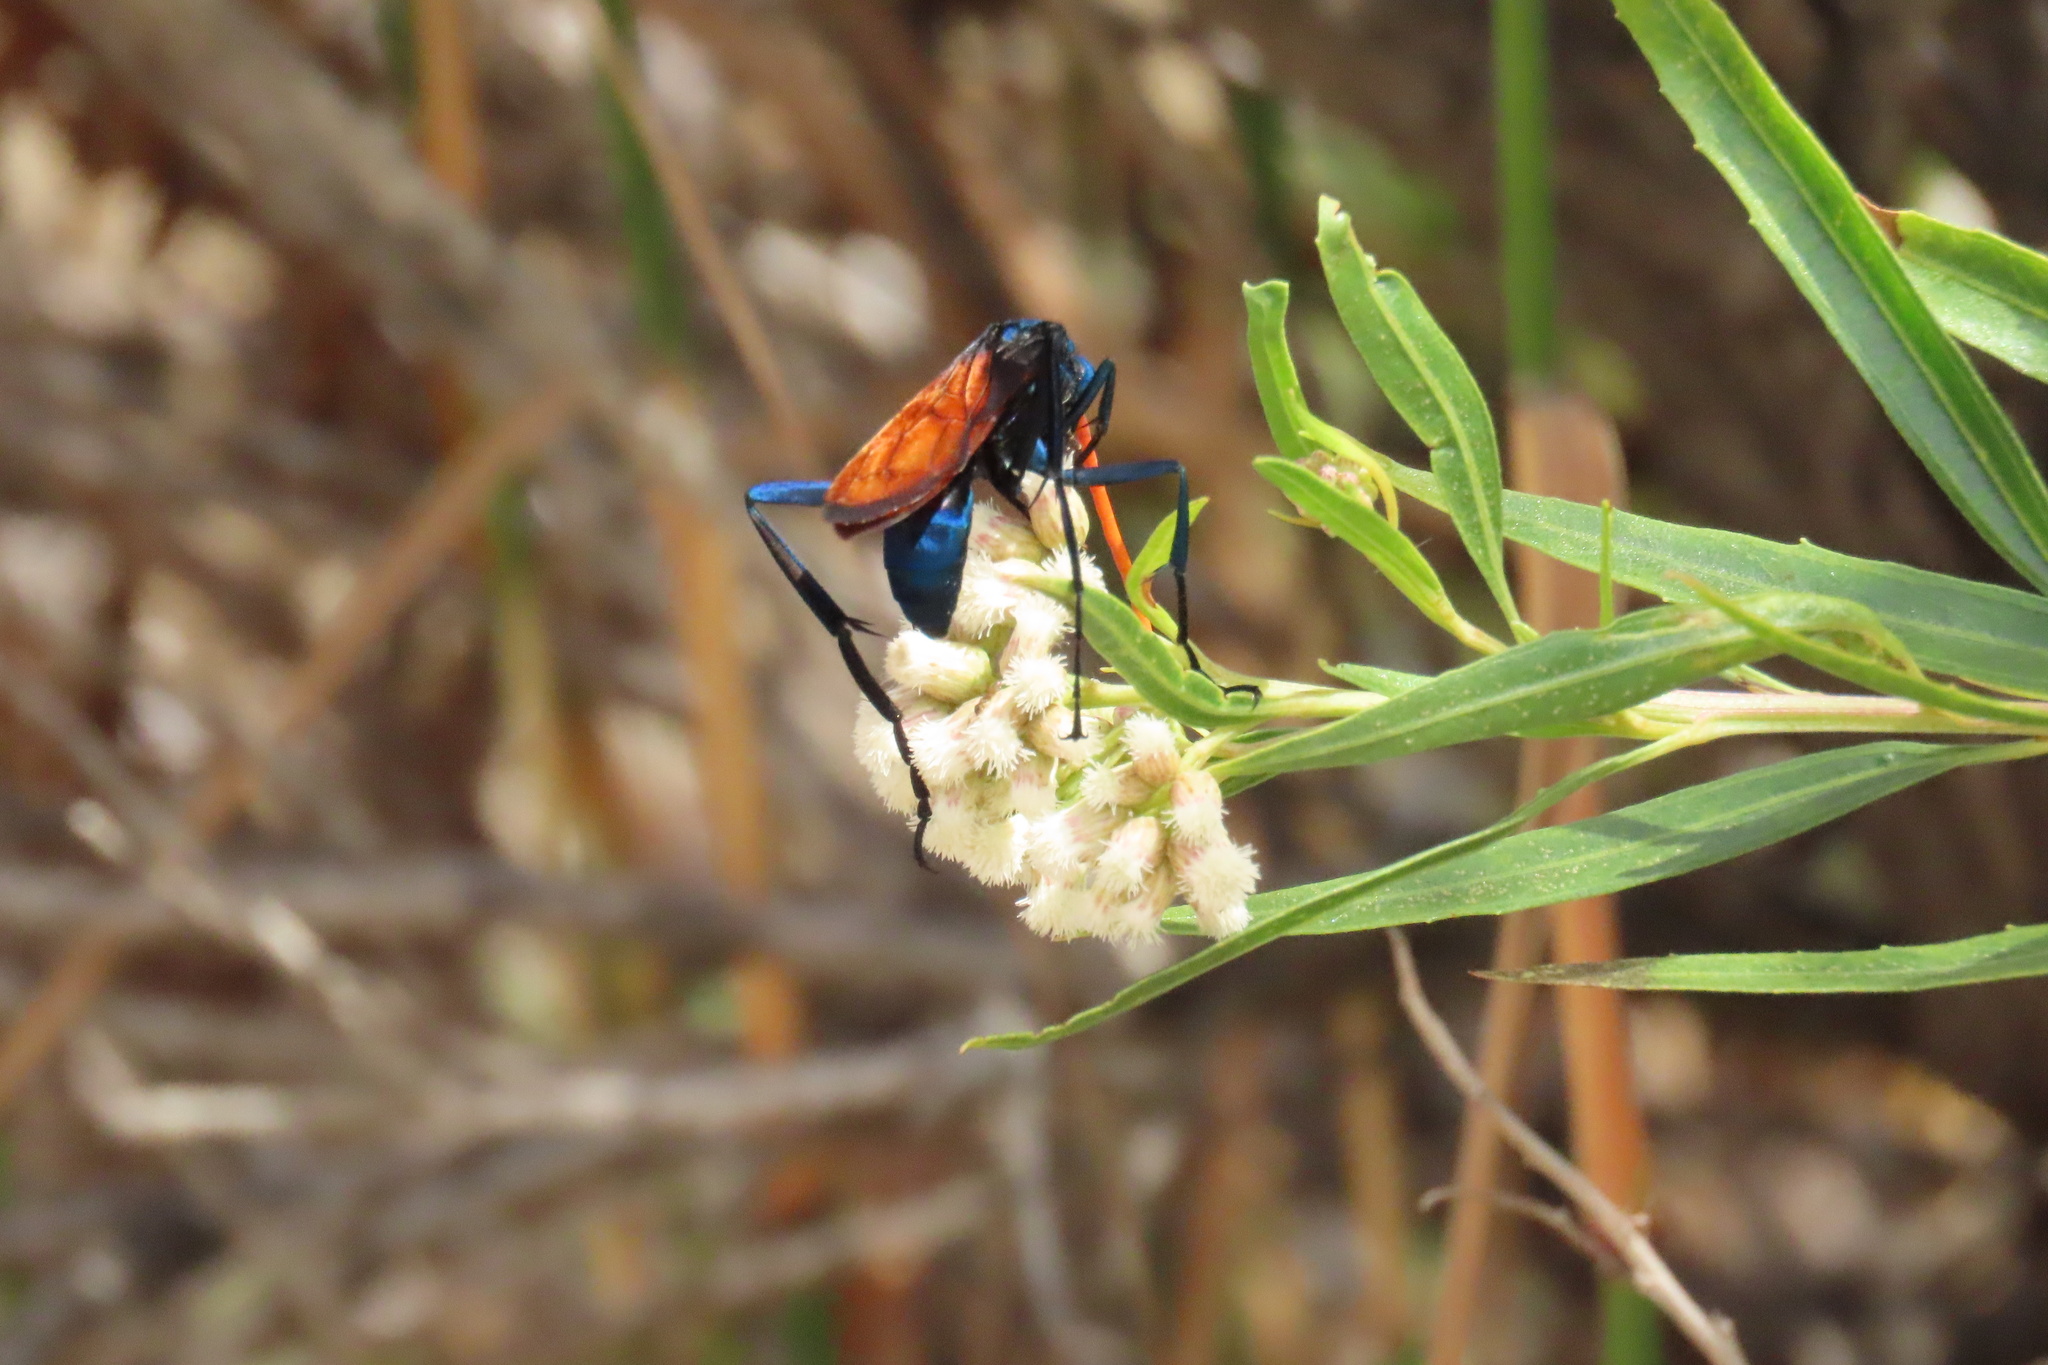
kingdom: Animalia
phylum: Arthropoda
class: Insecta
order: Hymenoptera
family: Pompilidae
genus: Pepsis
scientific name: Pepsis mildei
